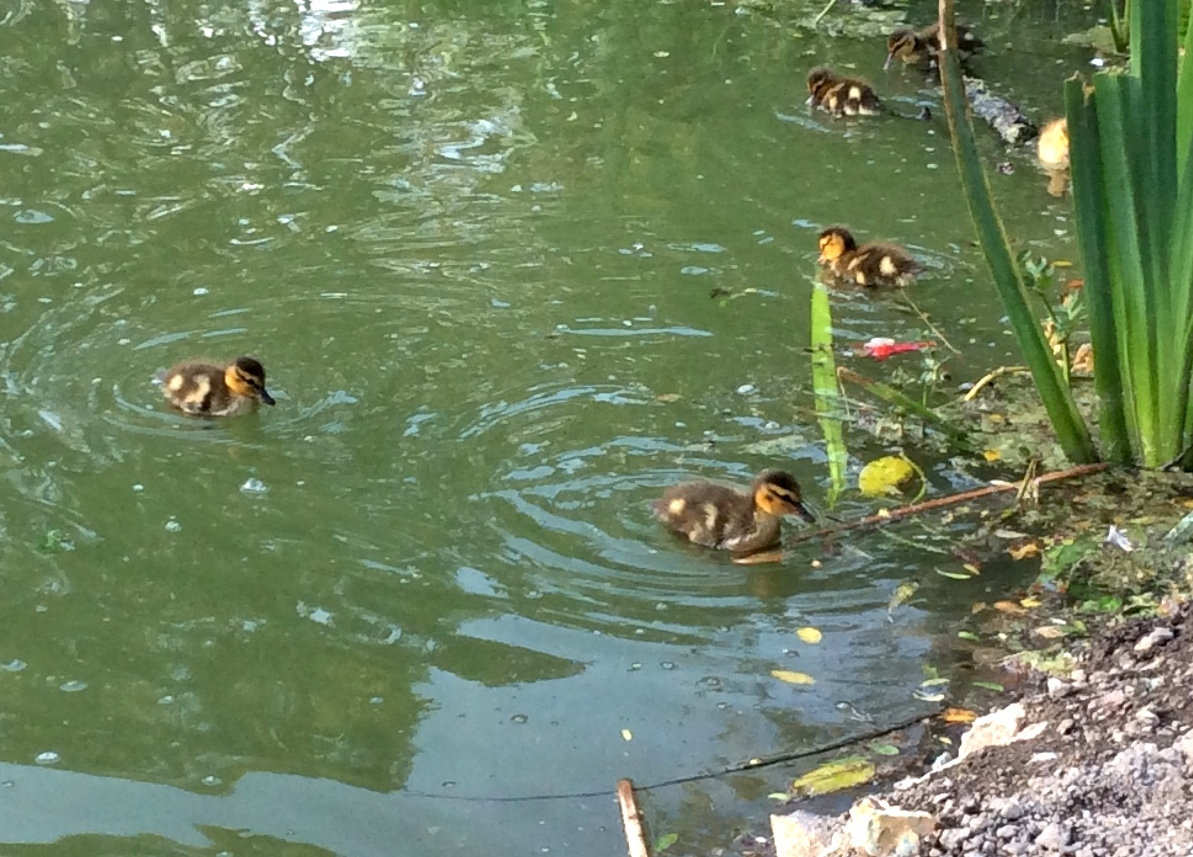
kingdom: Animalia
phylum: Chordata
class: Aves
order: Anseriformes
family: Anatidae
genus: Anas
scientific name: Anas platyrhynchos
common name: Mallard
